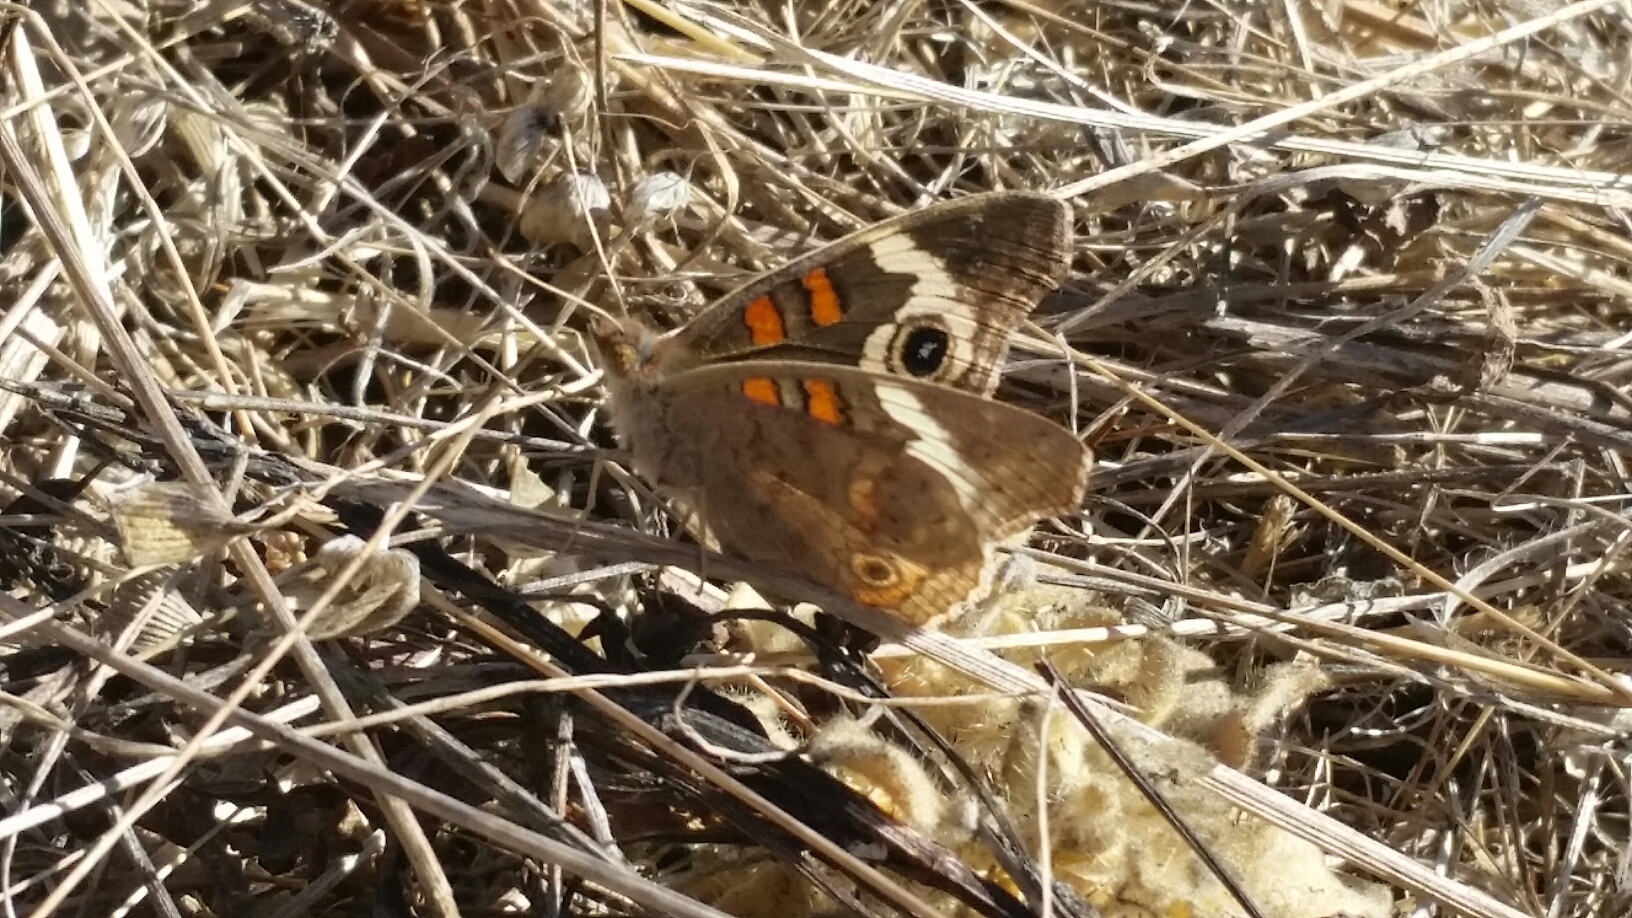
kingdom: Animalia
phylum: Arthropoda
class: Insecta
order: Lepidoptera
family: Nymphalidae
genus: Junonia
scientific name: Junonia grisea
